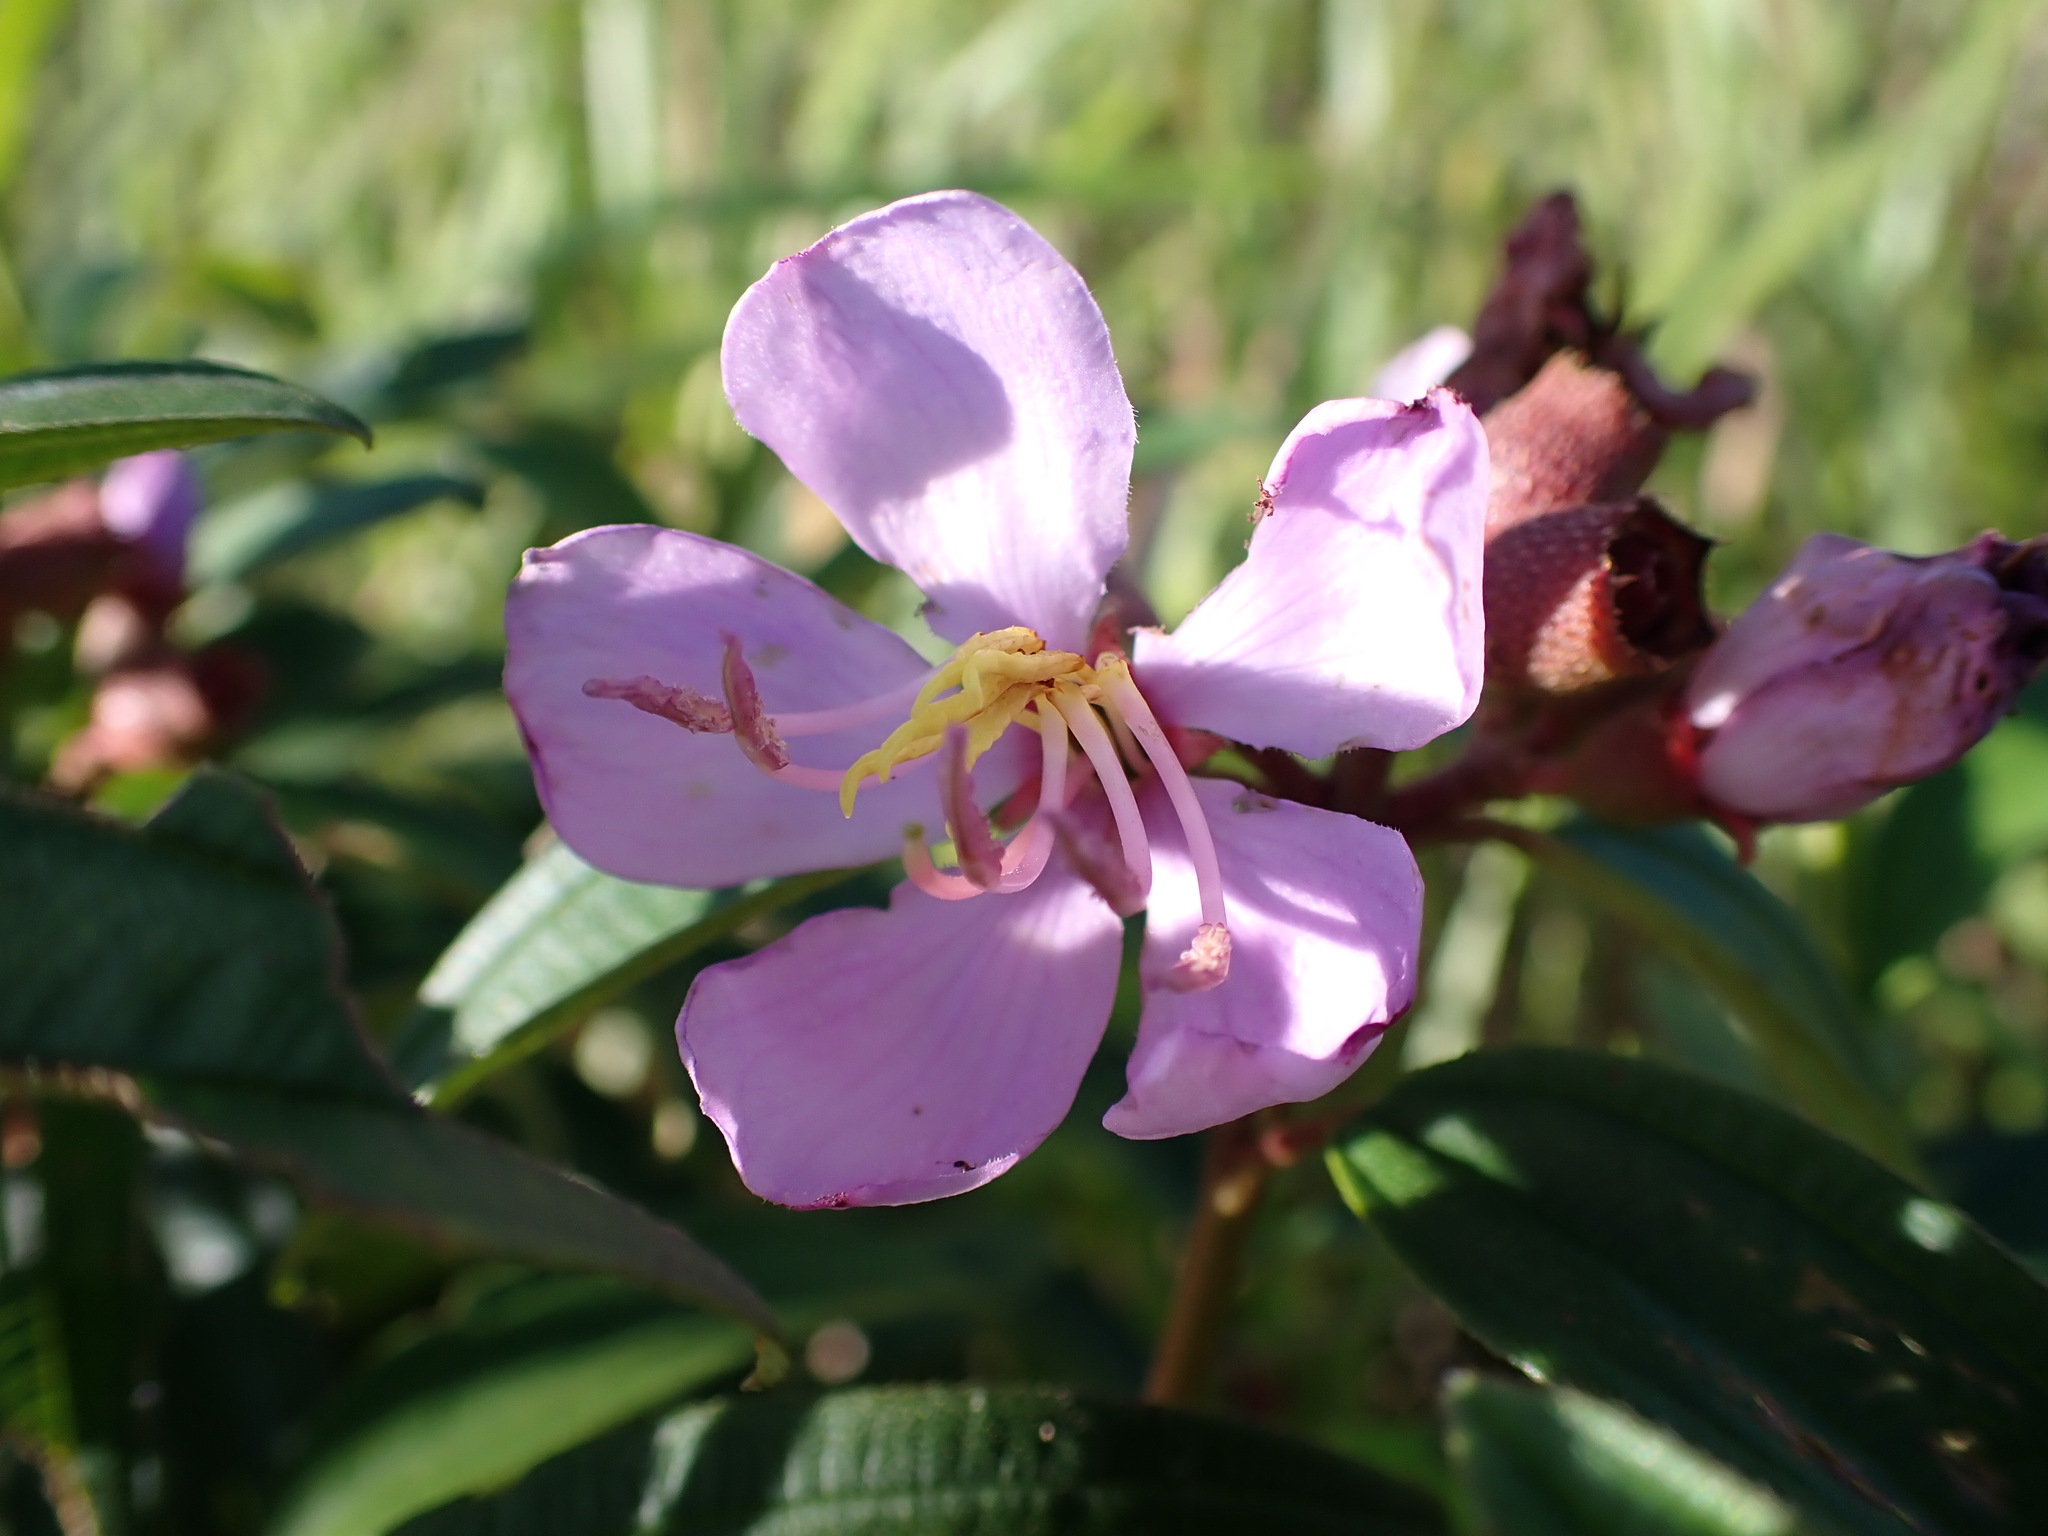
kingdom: Plantae
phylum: Tracheophyta
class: Magnoliopsida
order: Myrtales
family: Melastomataceae
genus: Melastoma
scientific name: Melastoma malabathricum
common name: Indian-rhododendron
